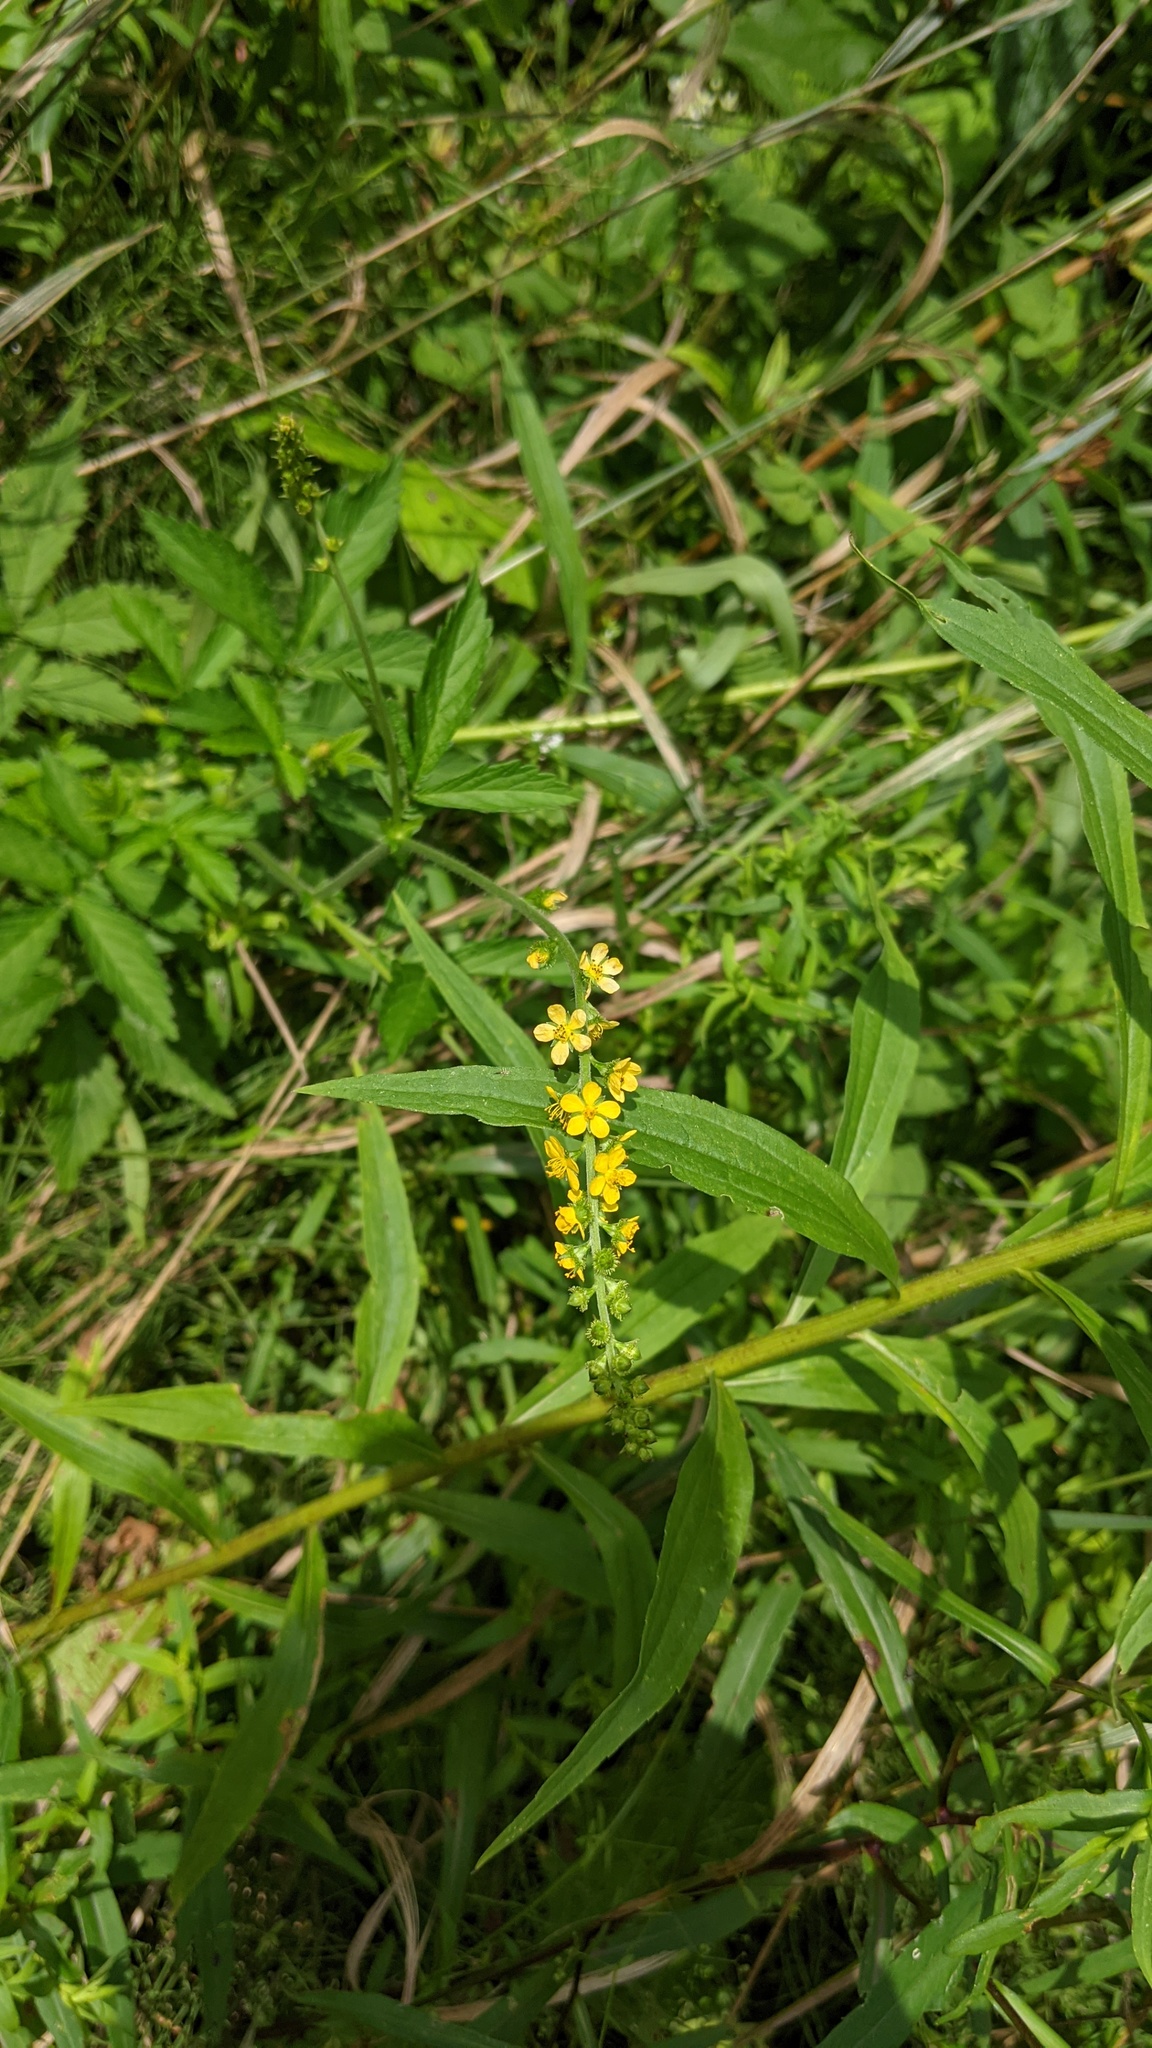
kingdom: Plantae
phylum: Tracheophyta
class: Magnoliopsida
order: Rosales
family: Rosaceae
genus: Agrimonia
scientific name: Agrimonia striata
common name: Britton's agrimony
